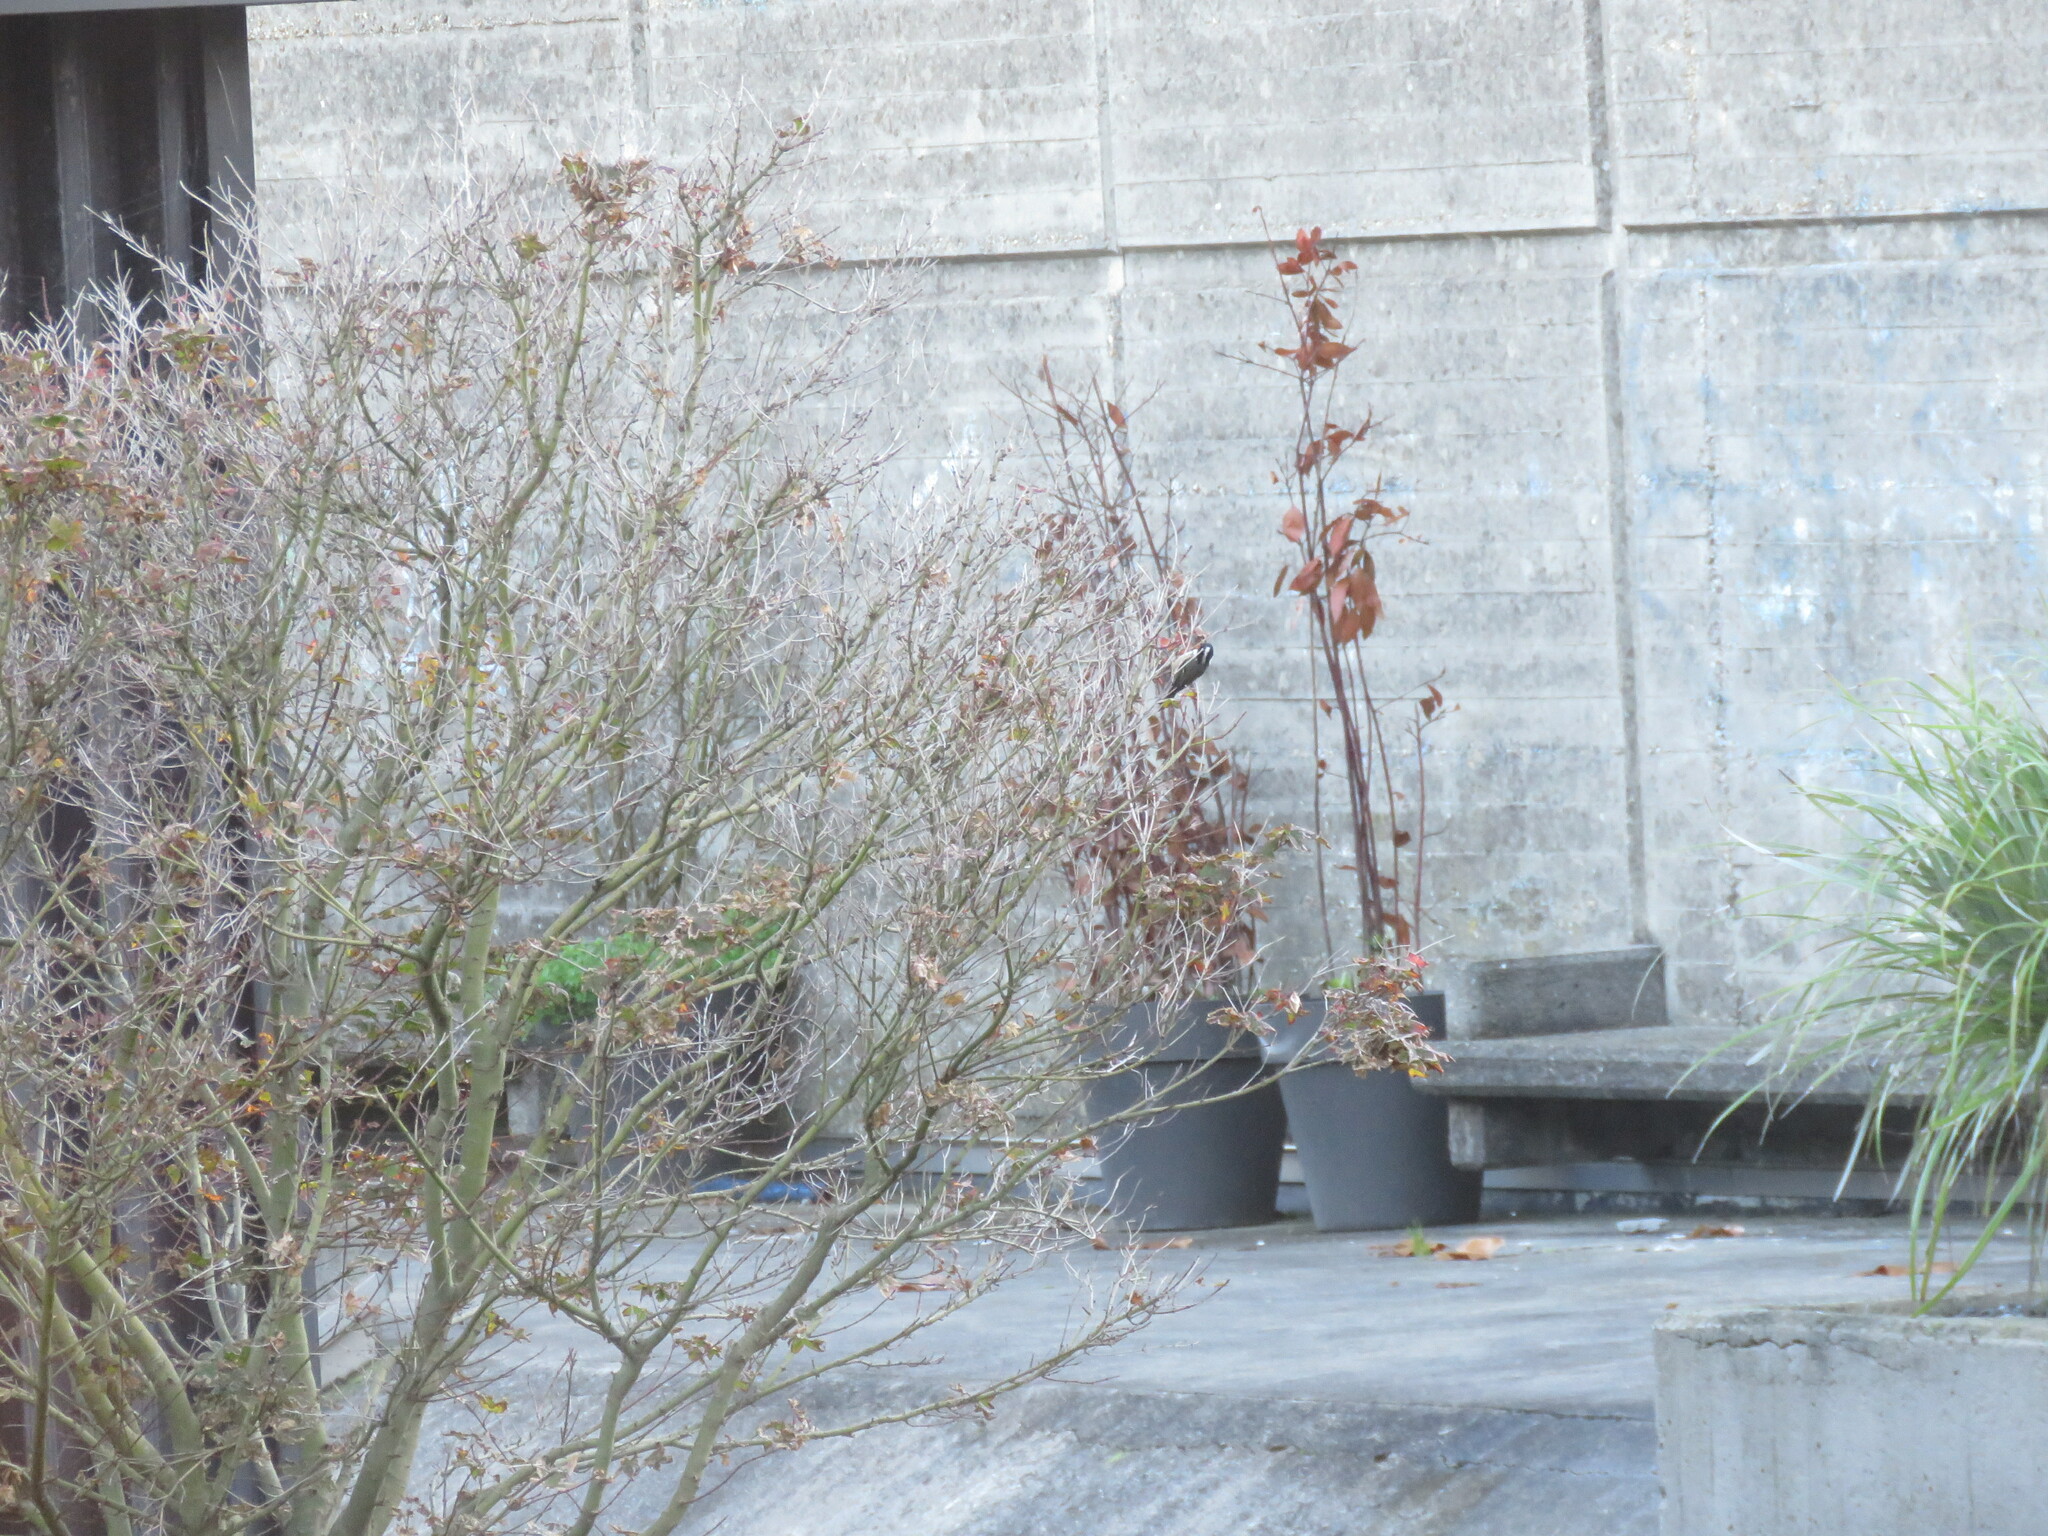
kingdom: Animalia
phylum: Chordata
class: Aves
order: Passeriformes
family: Paridae
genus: Periparus
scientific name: Periparus ater
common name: Coal tit
